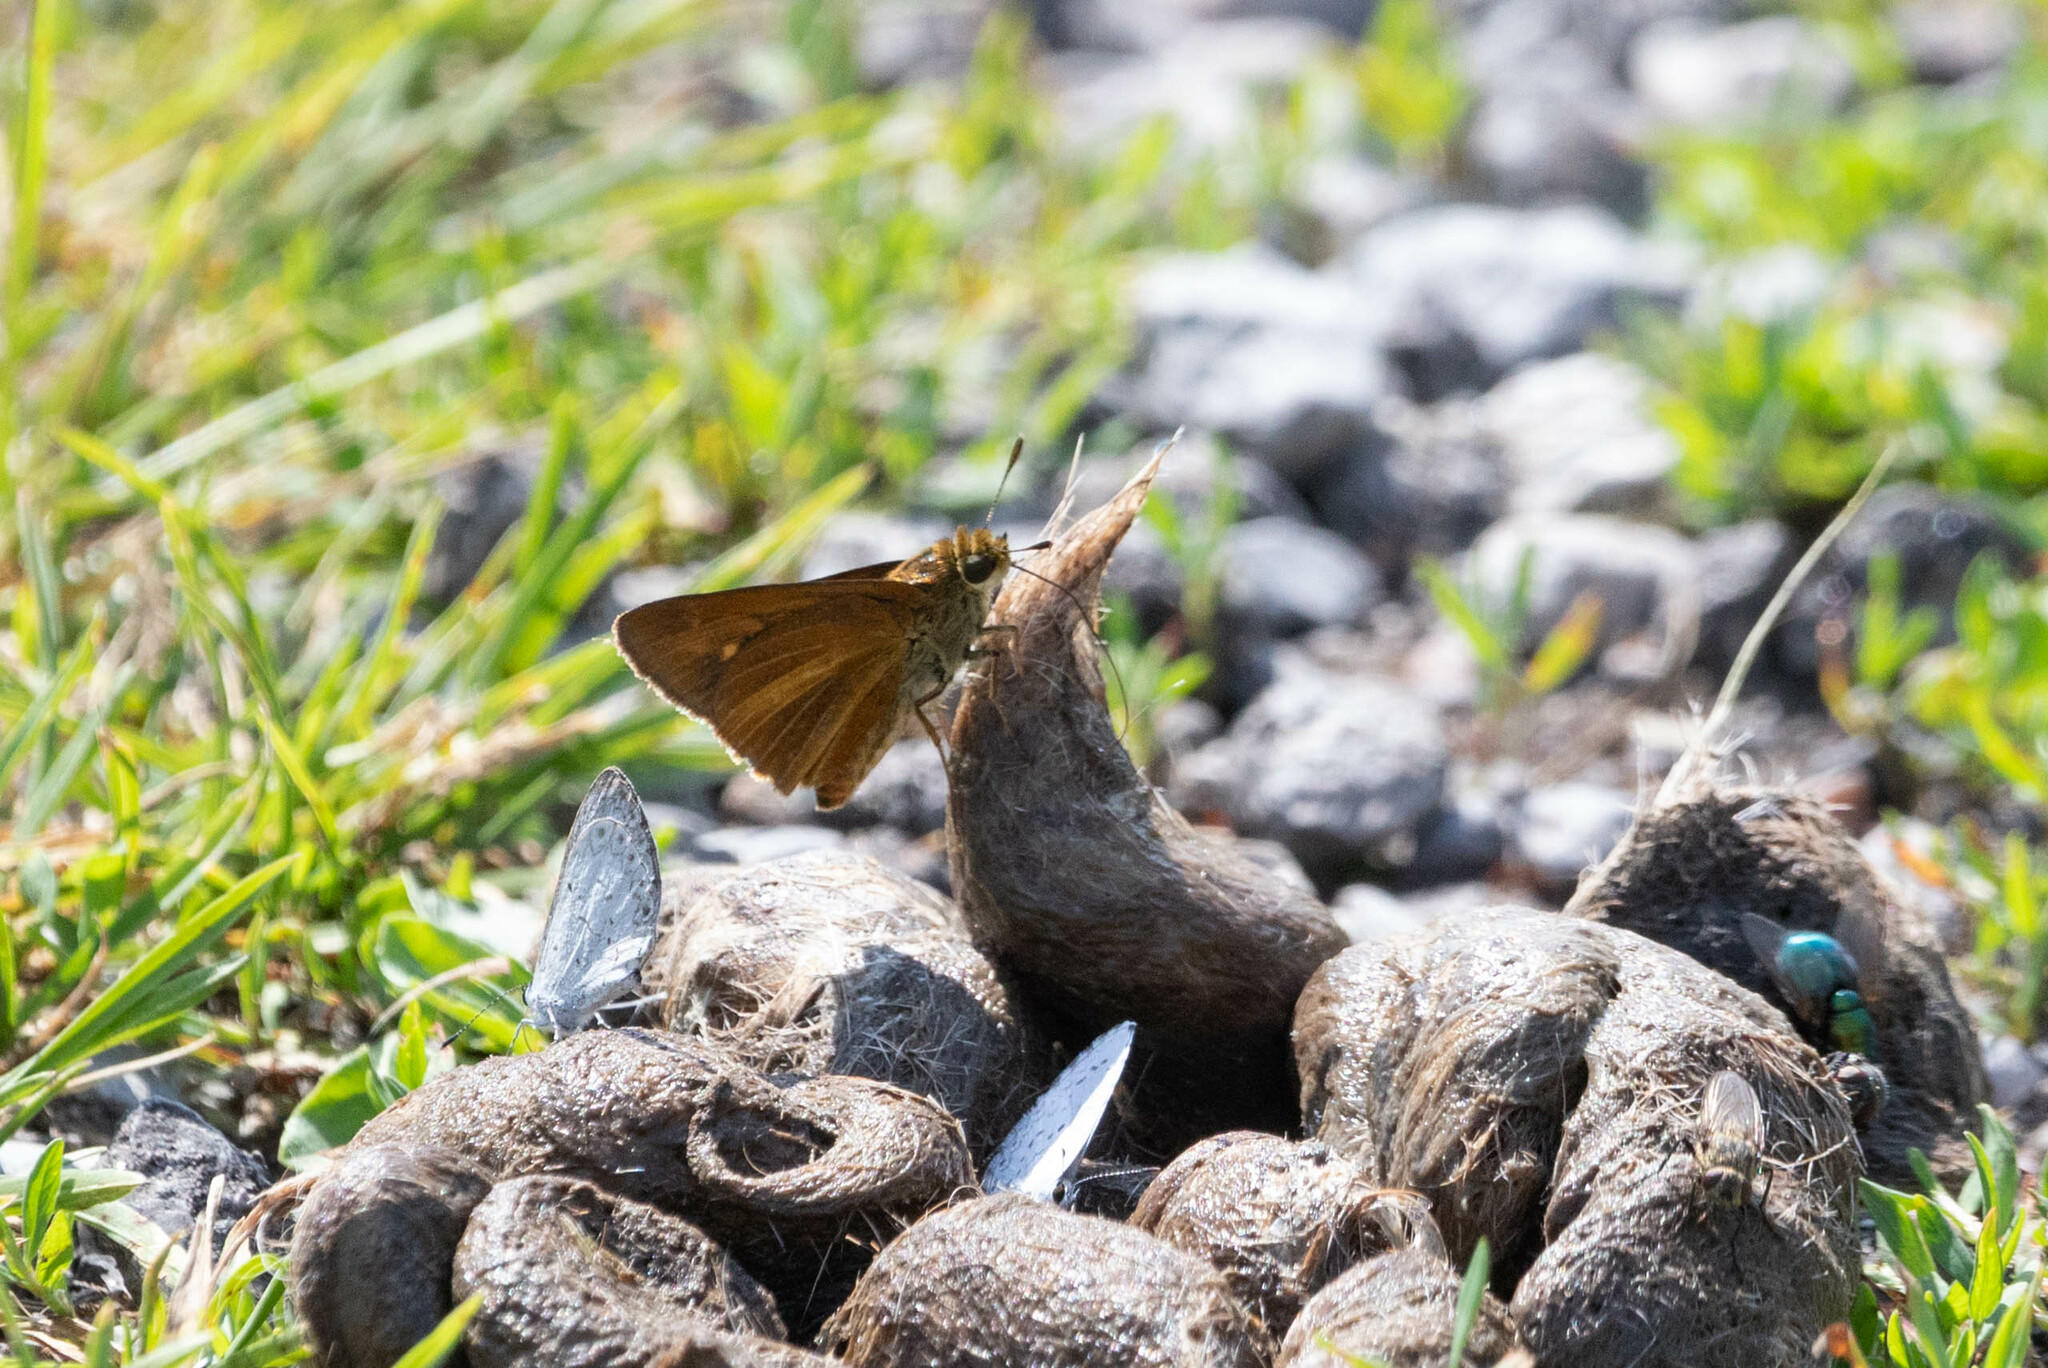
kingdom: Animalia
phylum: Arthropoda
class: Insecta
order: Lepidoptera
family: Hesperiidae
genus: Euphyes
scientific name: Euphyes dion
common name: Dion skipper
